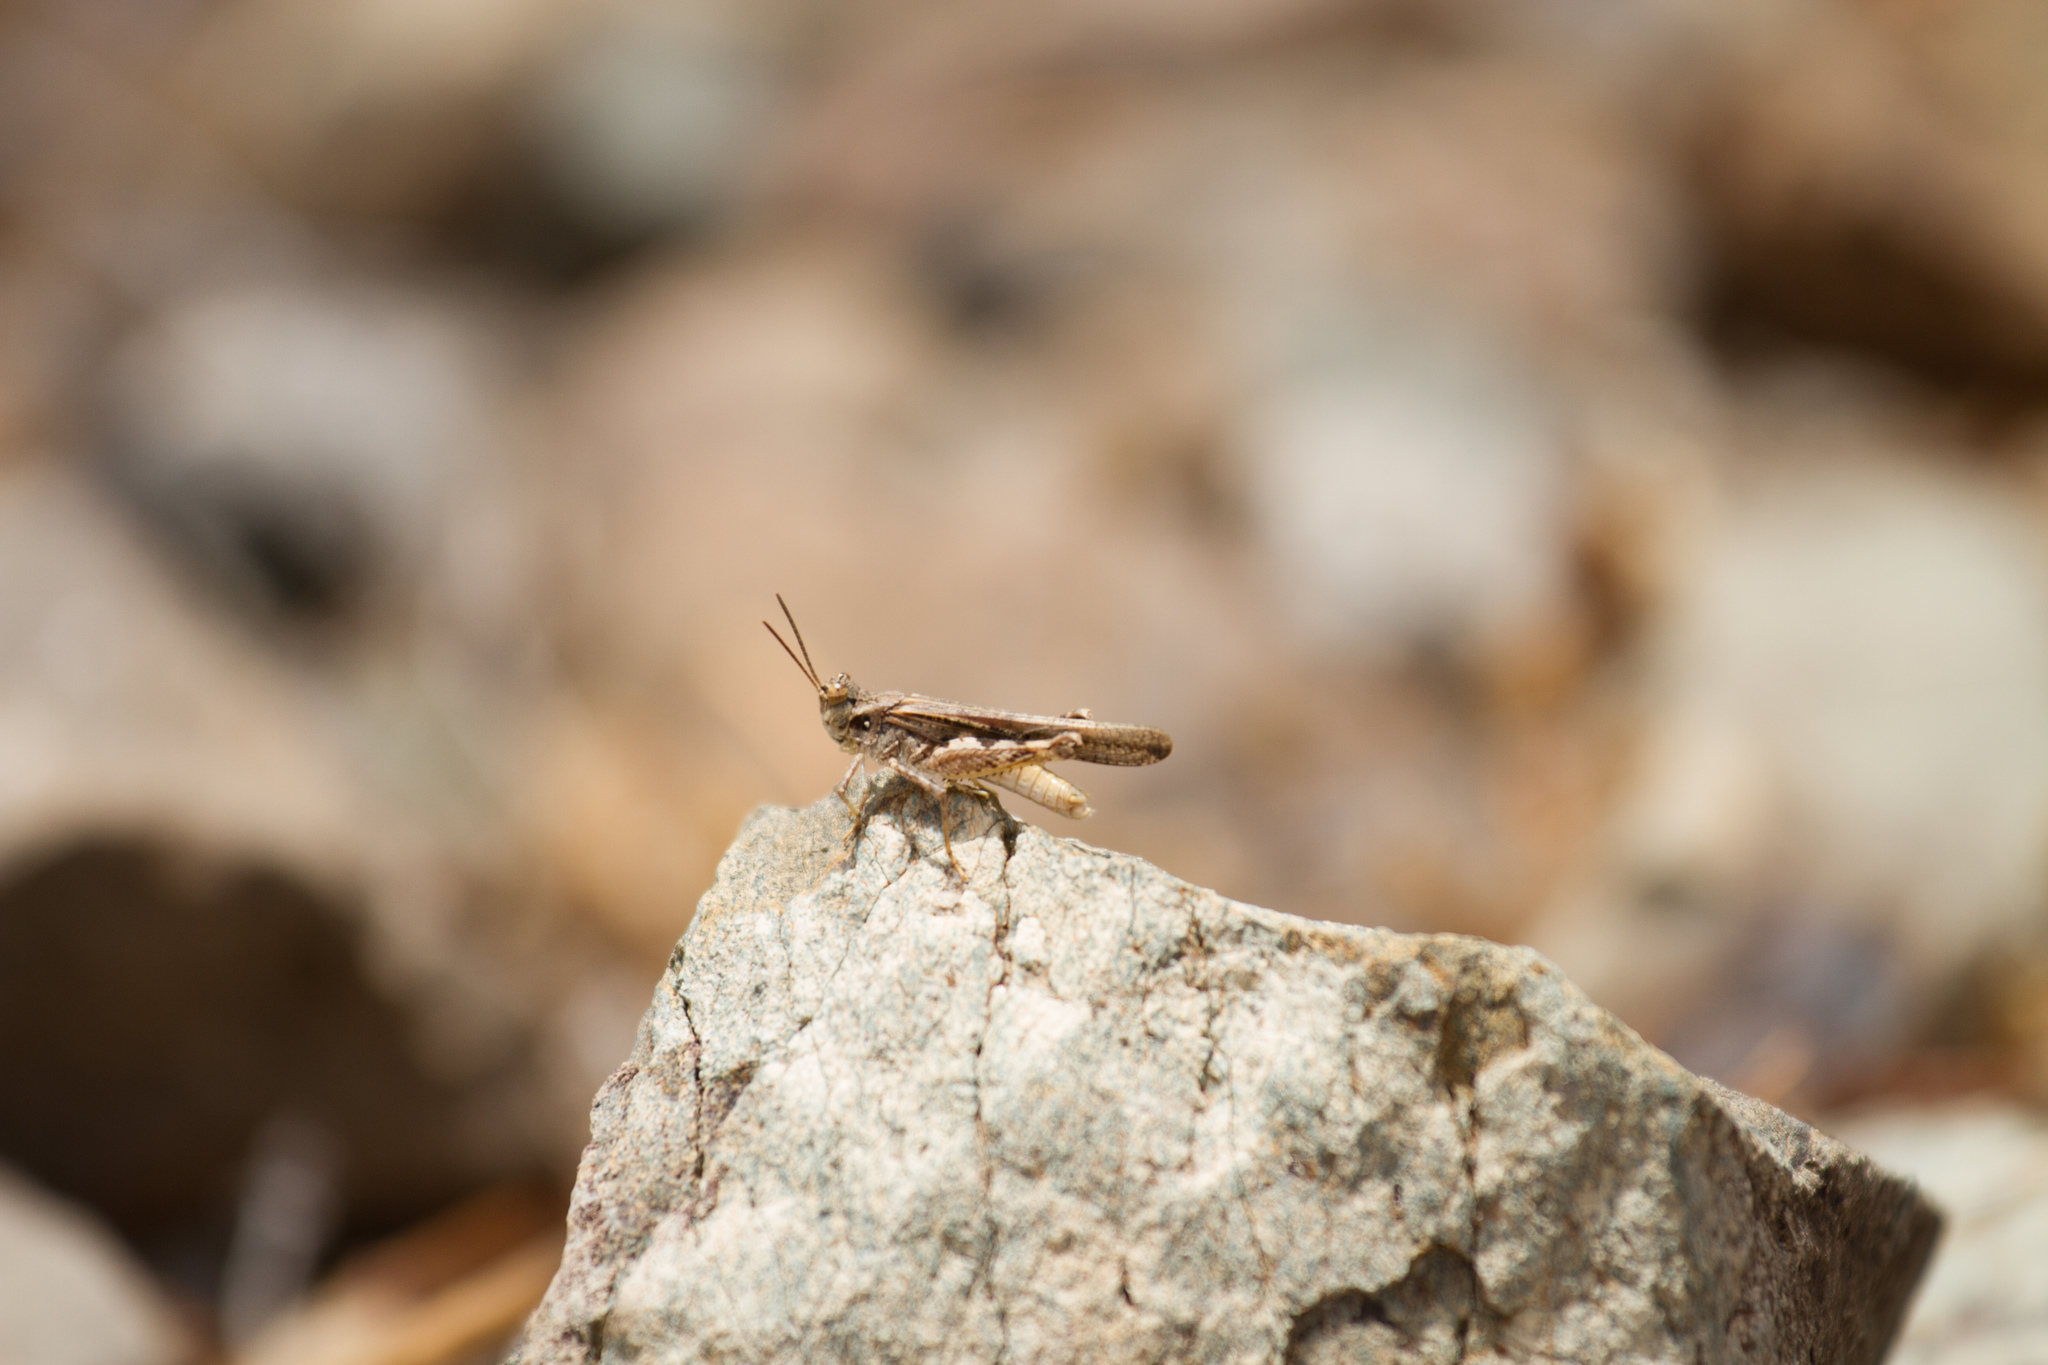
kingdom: Animalia
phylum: Arthropoda
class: Insecta
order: Orthoptera
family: Acrididae
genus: Acrotylus
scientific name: Acrotylus insubricus
